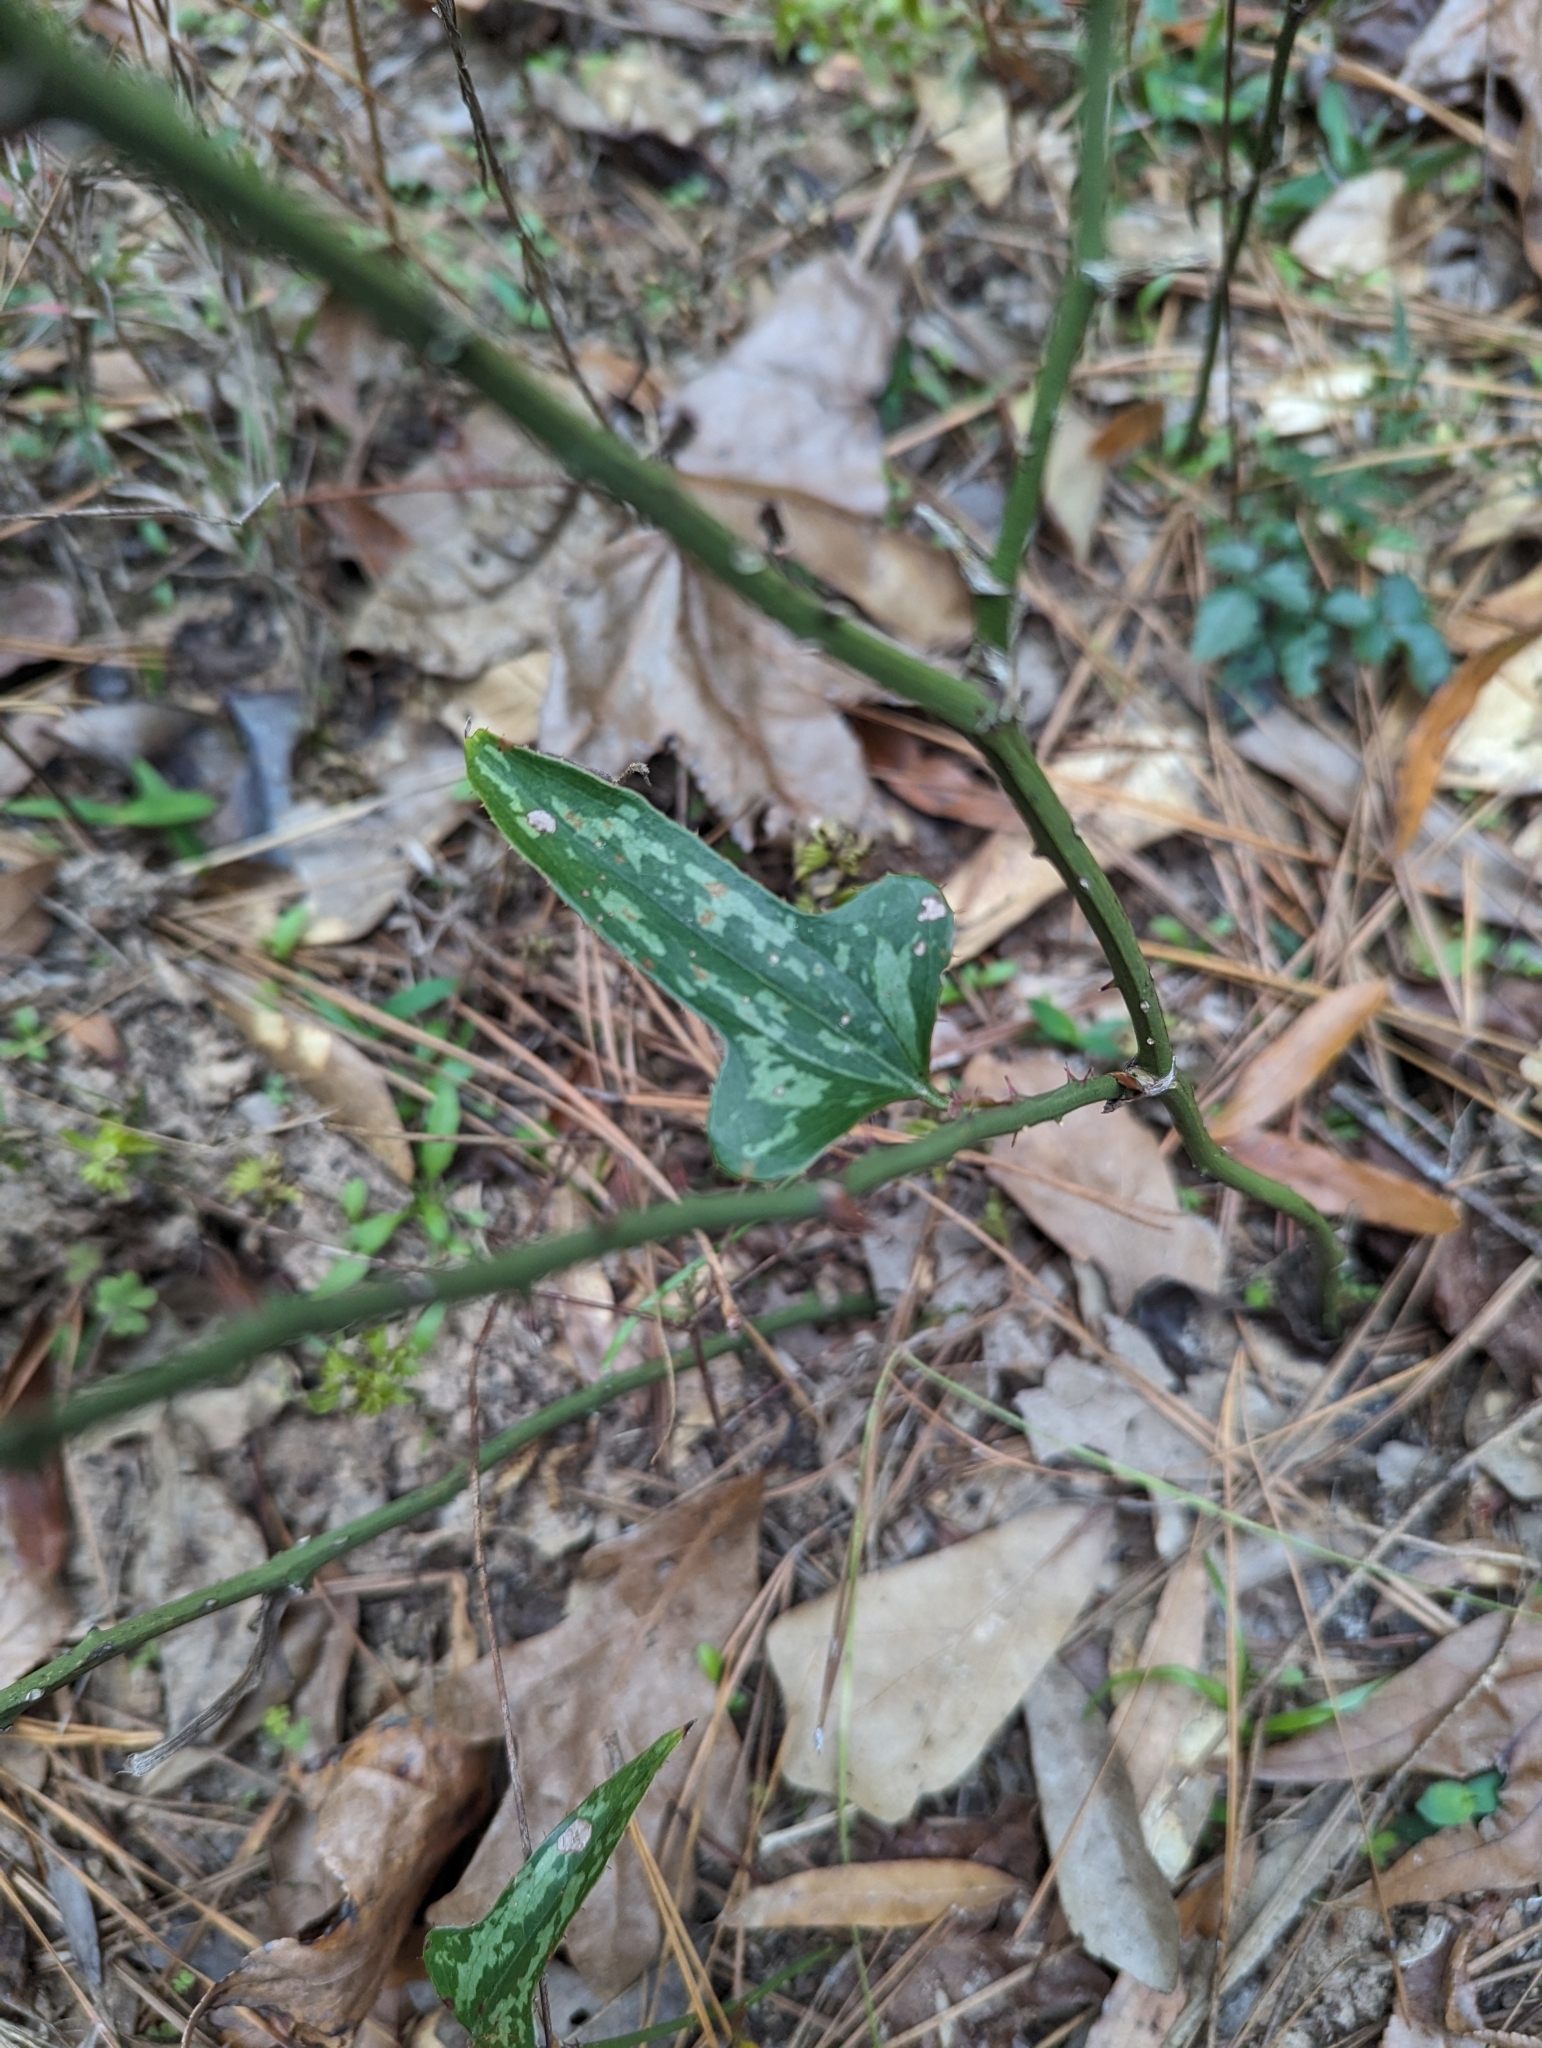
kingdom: Plantae
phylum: Tracheophyta
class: Liliopsida
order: Liliales
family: Smilacaceae
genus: Smilax
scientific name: Smilax bona-nox
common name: Catbrier
